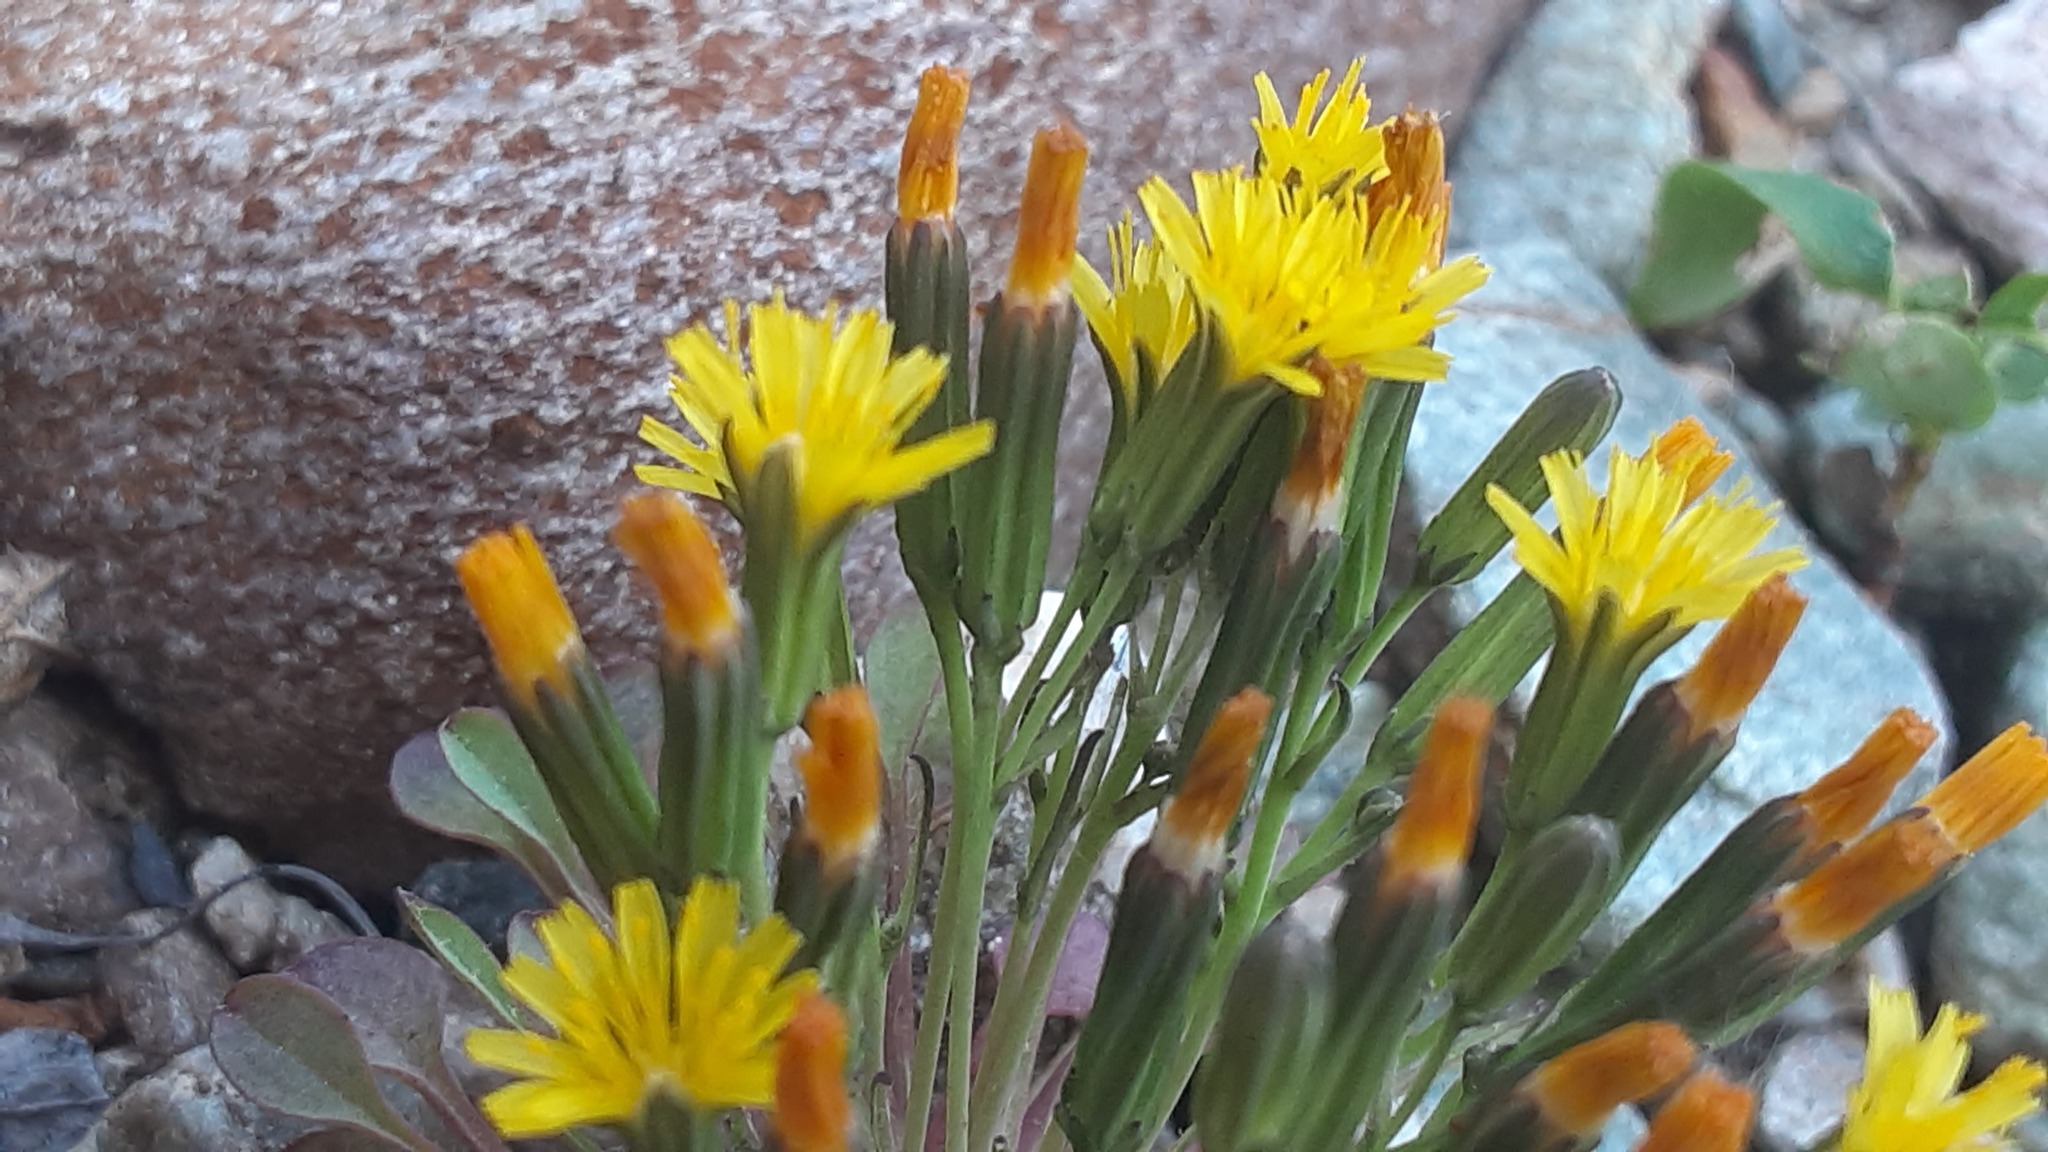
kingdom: Plantae
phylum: Tracheophyta
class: Magnoliopsida
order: Asterales
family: Asteraceae
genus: Askellia
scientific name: Askellia pygmaea
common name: Dwarf alpine hawksbeard
